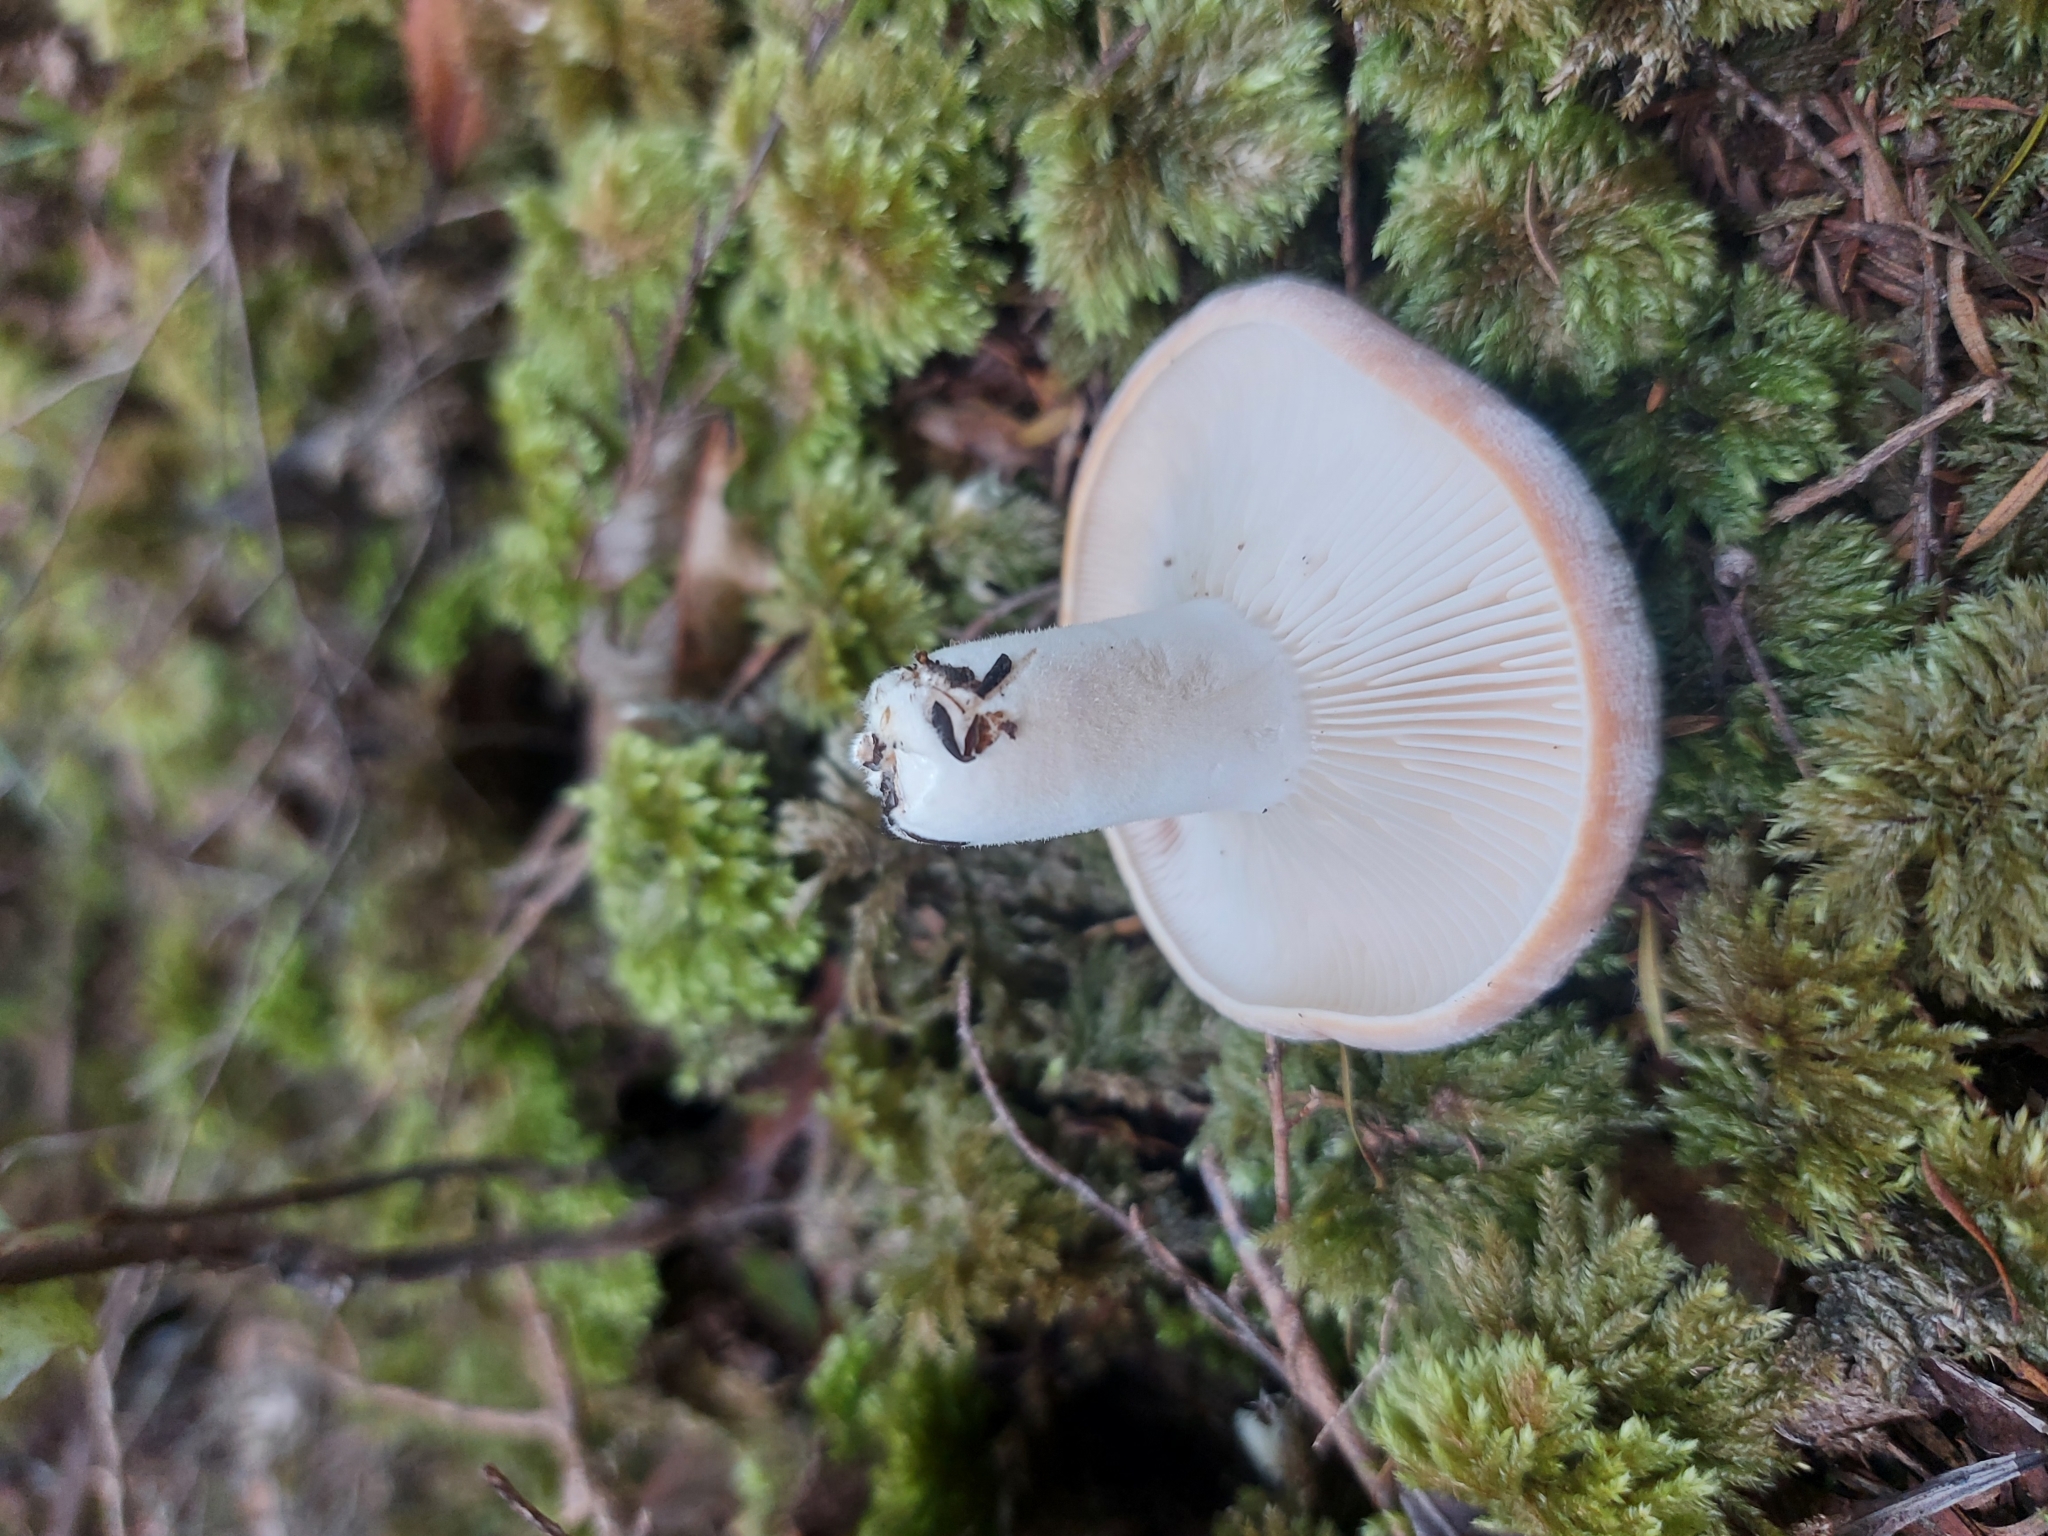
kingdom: Fungi
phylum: Basidiomycota
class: Agaricomycetes
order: Russulales
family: Russulaceae
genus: Lactifluus
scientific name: Lactifluus clarkeae
